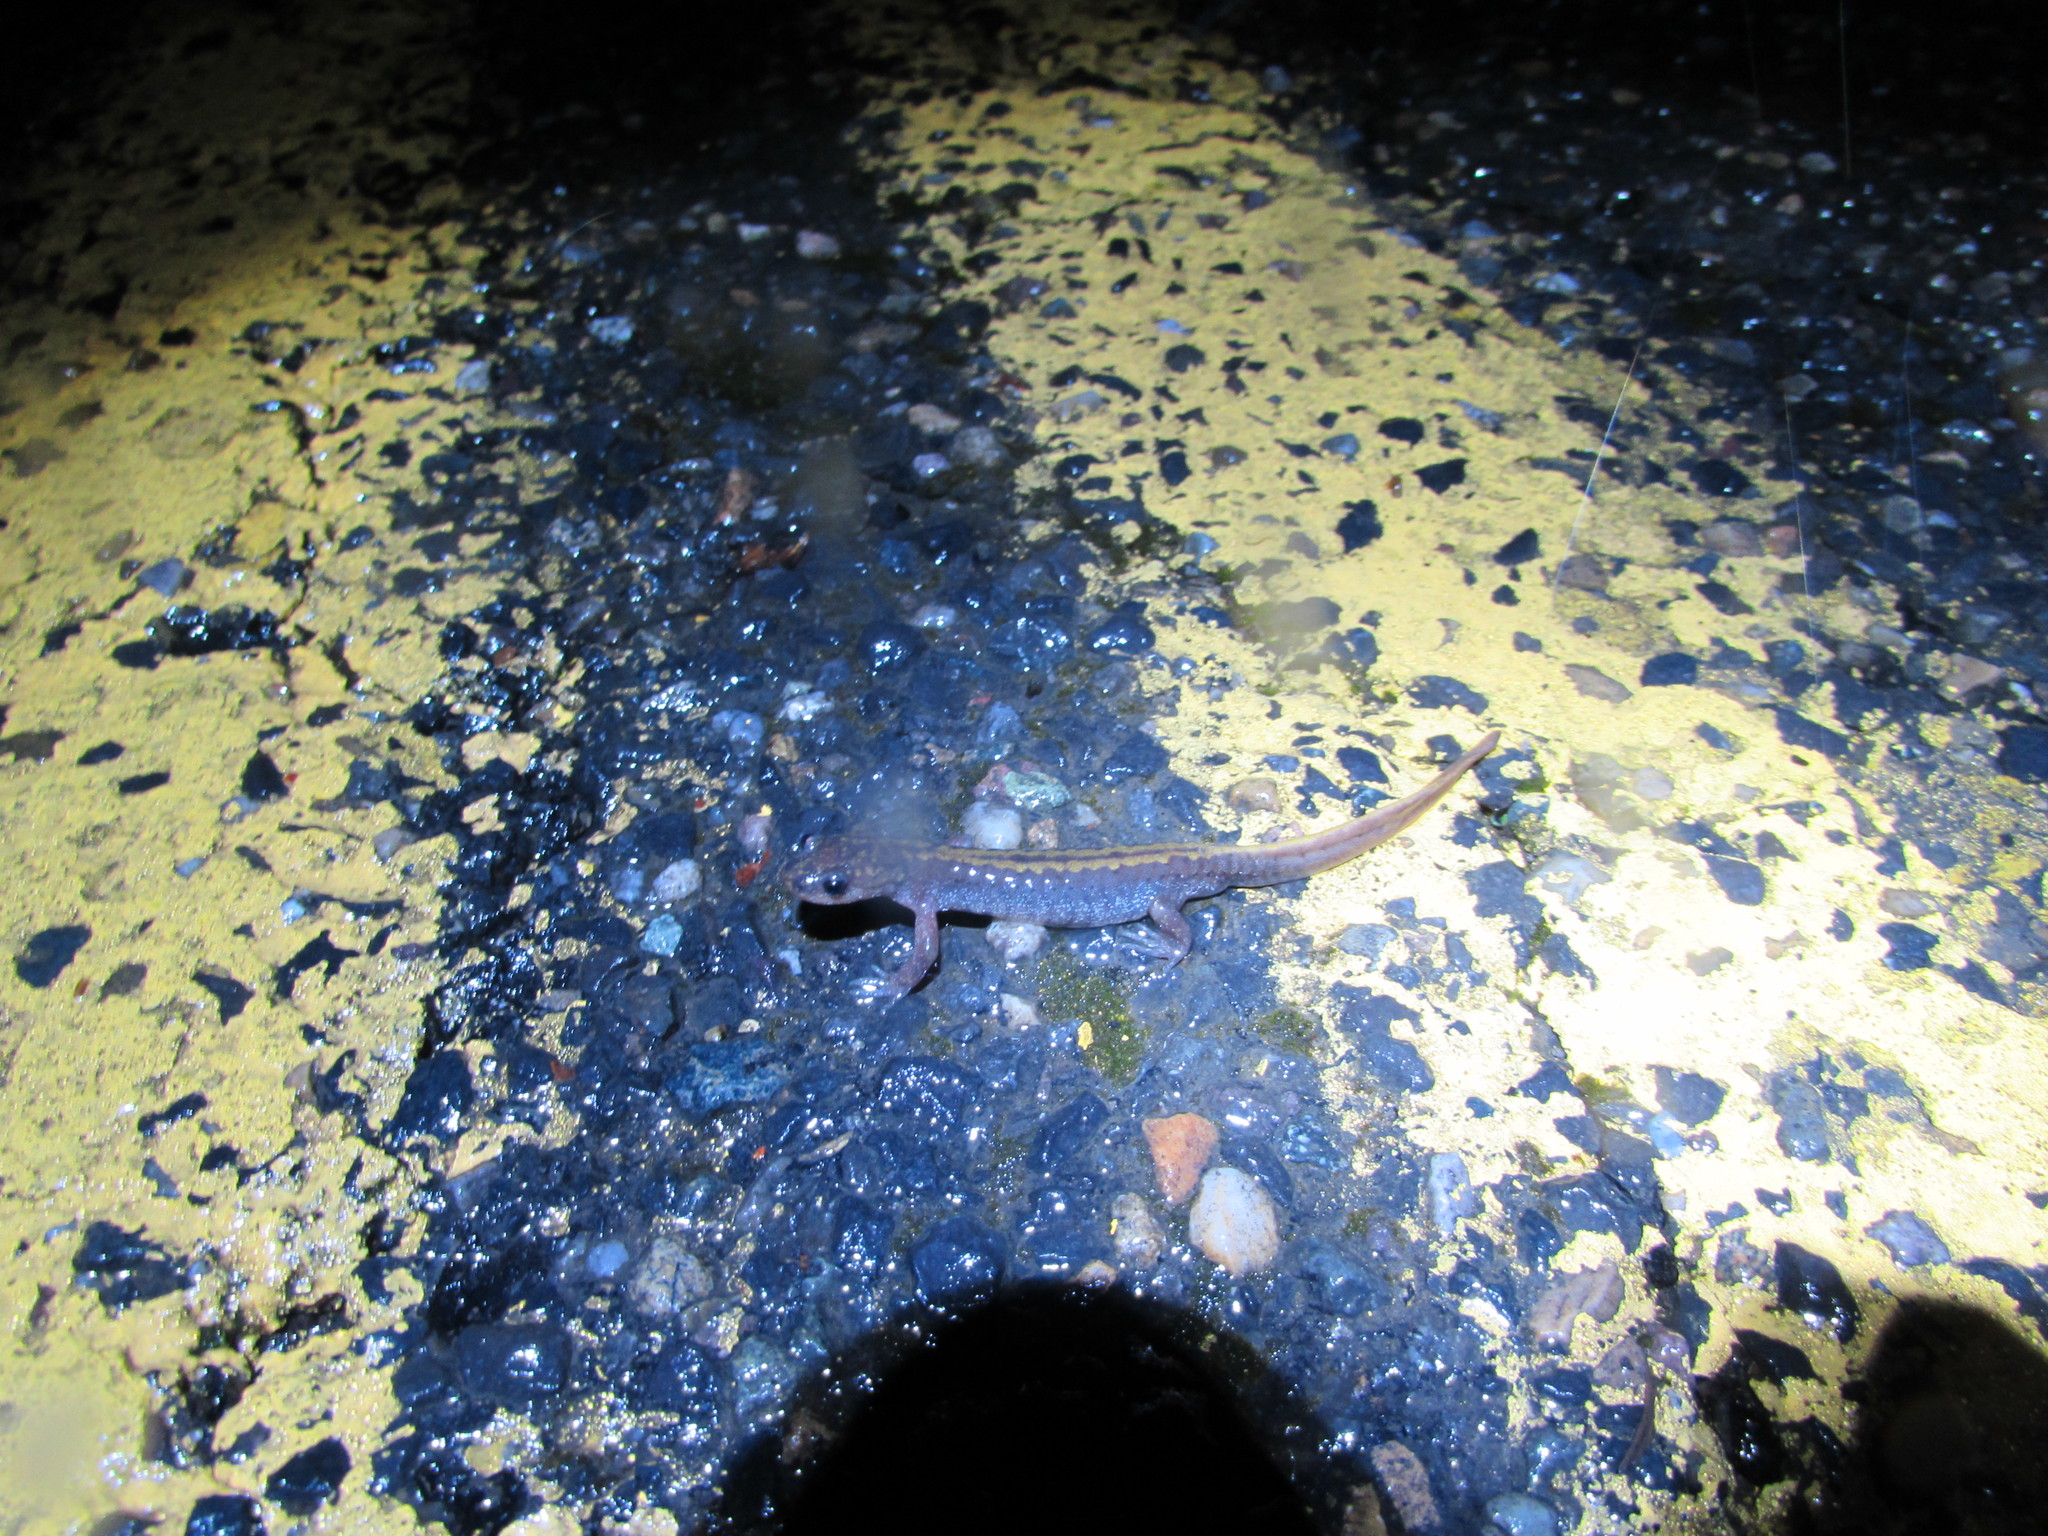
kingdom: Animalia
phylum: Chordata
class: Amphibia
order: Caudata
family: Ambystomatidae
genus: Ambystoma
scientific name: Ambystoma macrodactylum
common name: Long-toed salamander
